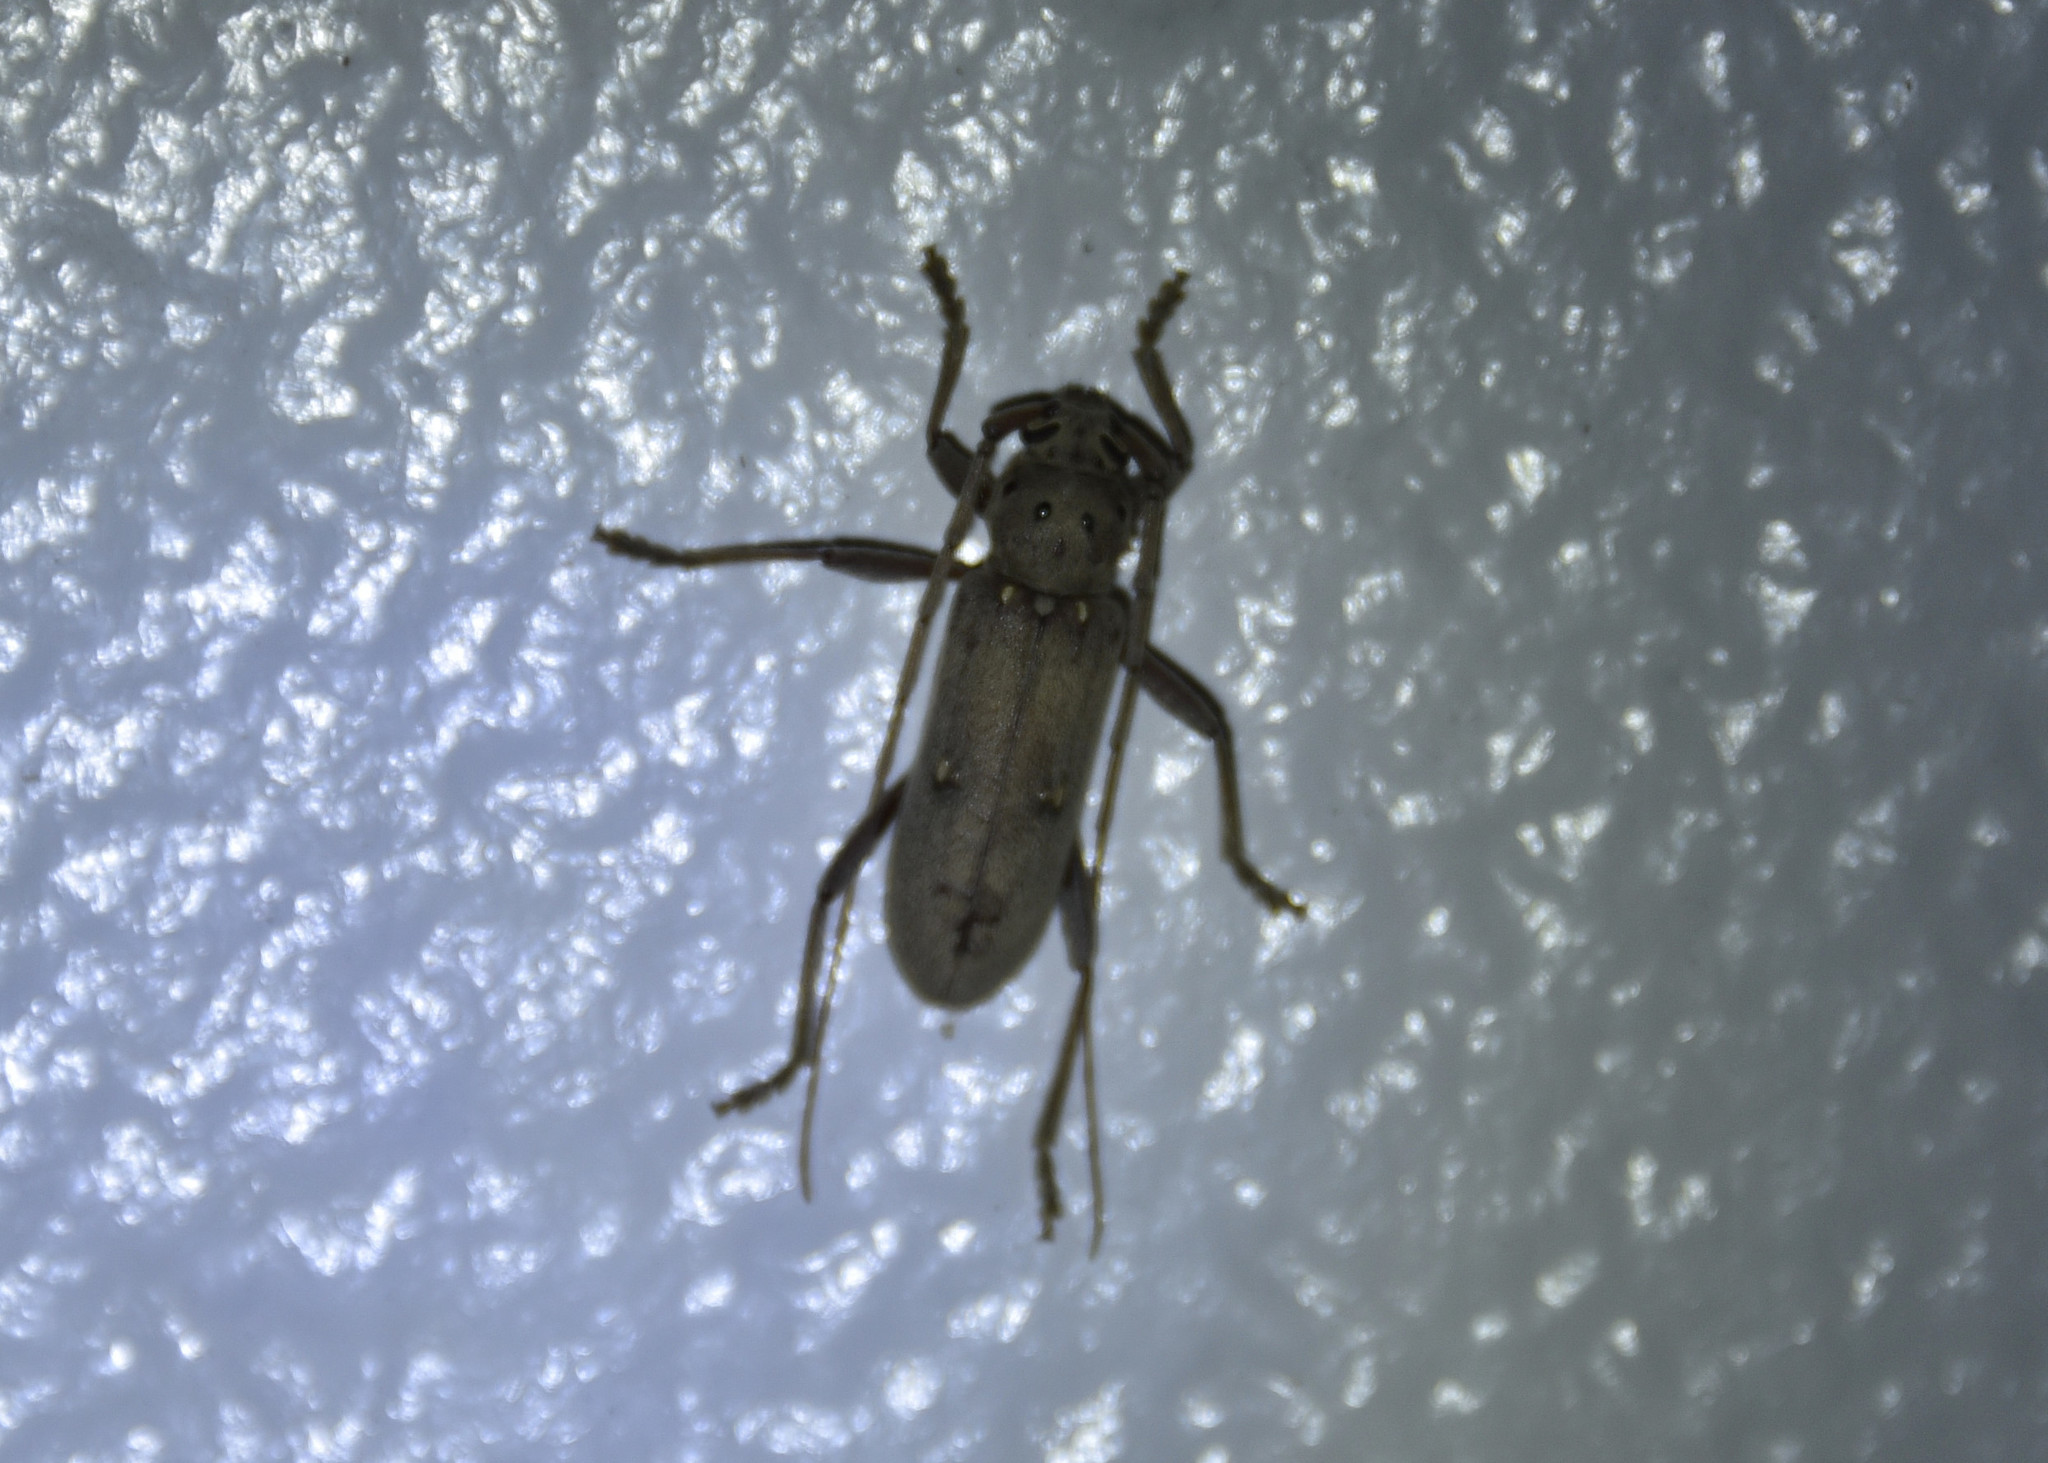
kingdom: Animalia
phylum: Arthropoda
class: Insecta
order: Coleoptera
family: Cerambycidae
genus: Eburia
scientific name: Eburia mutica
